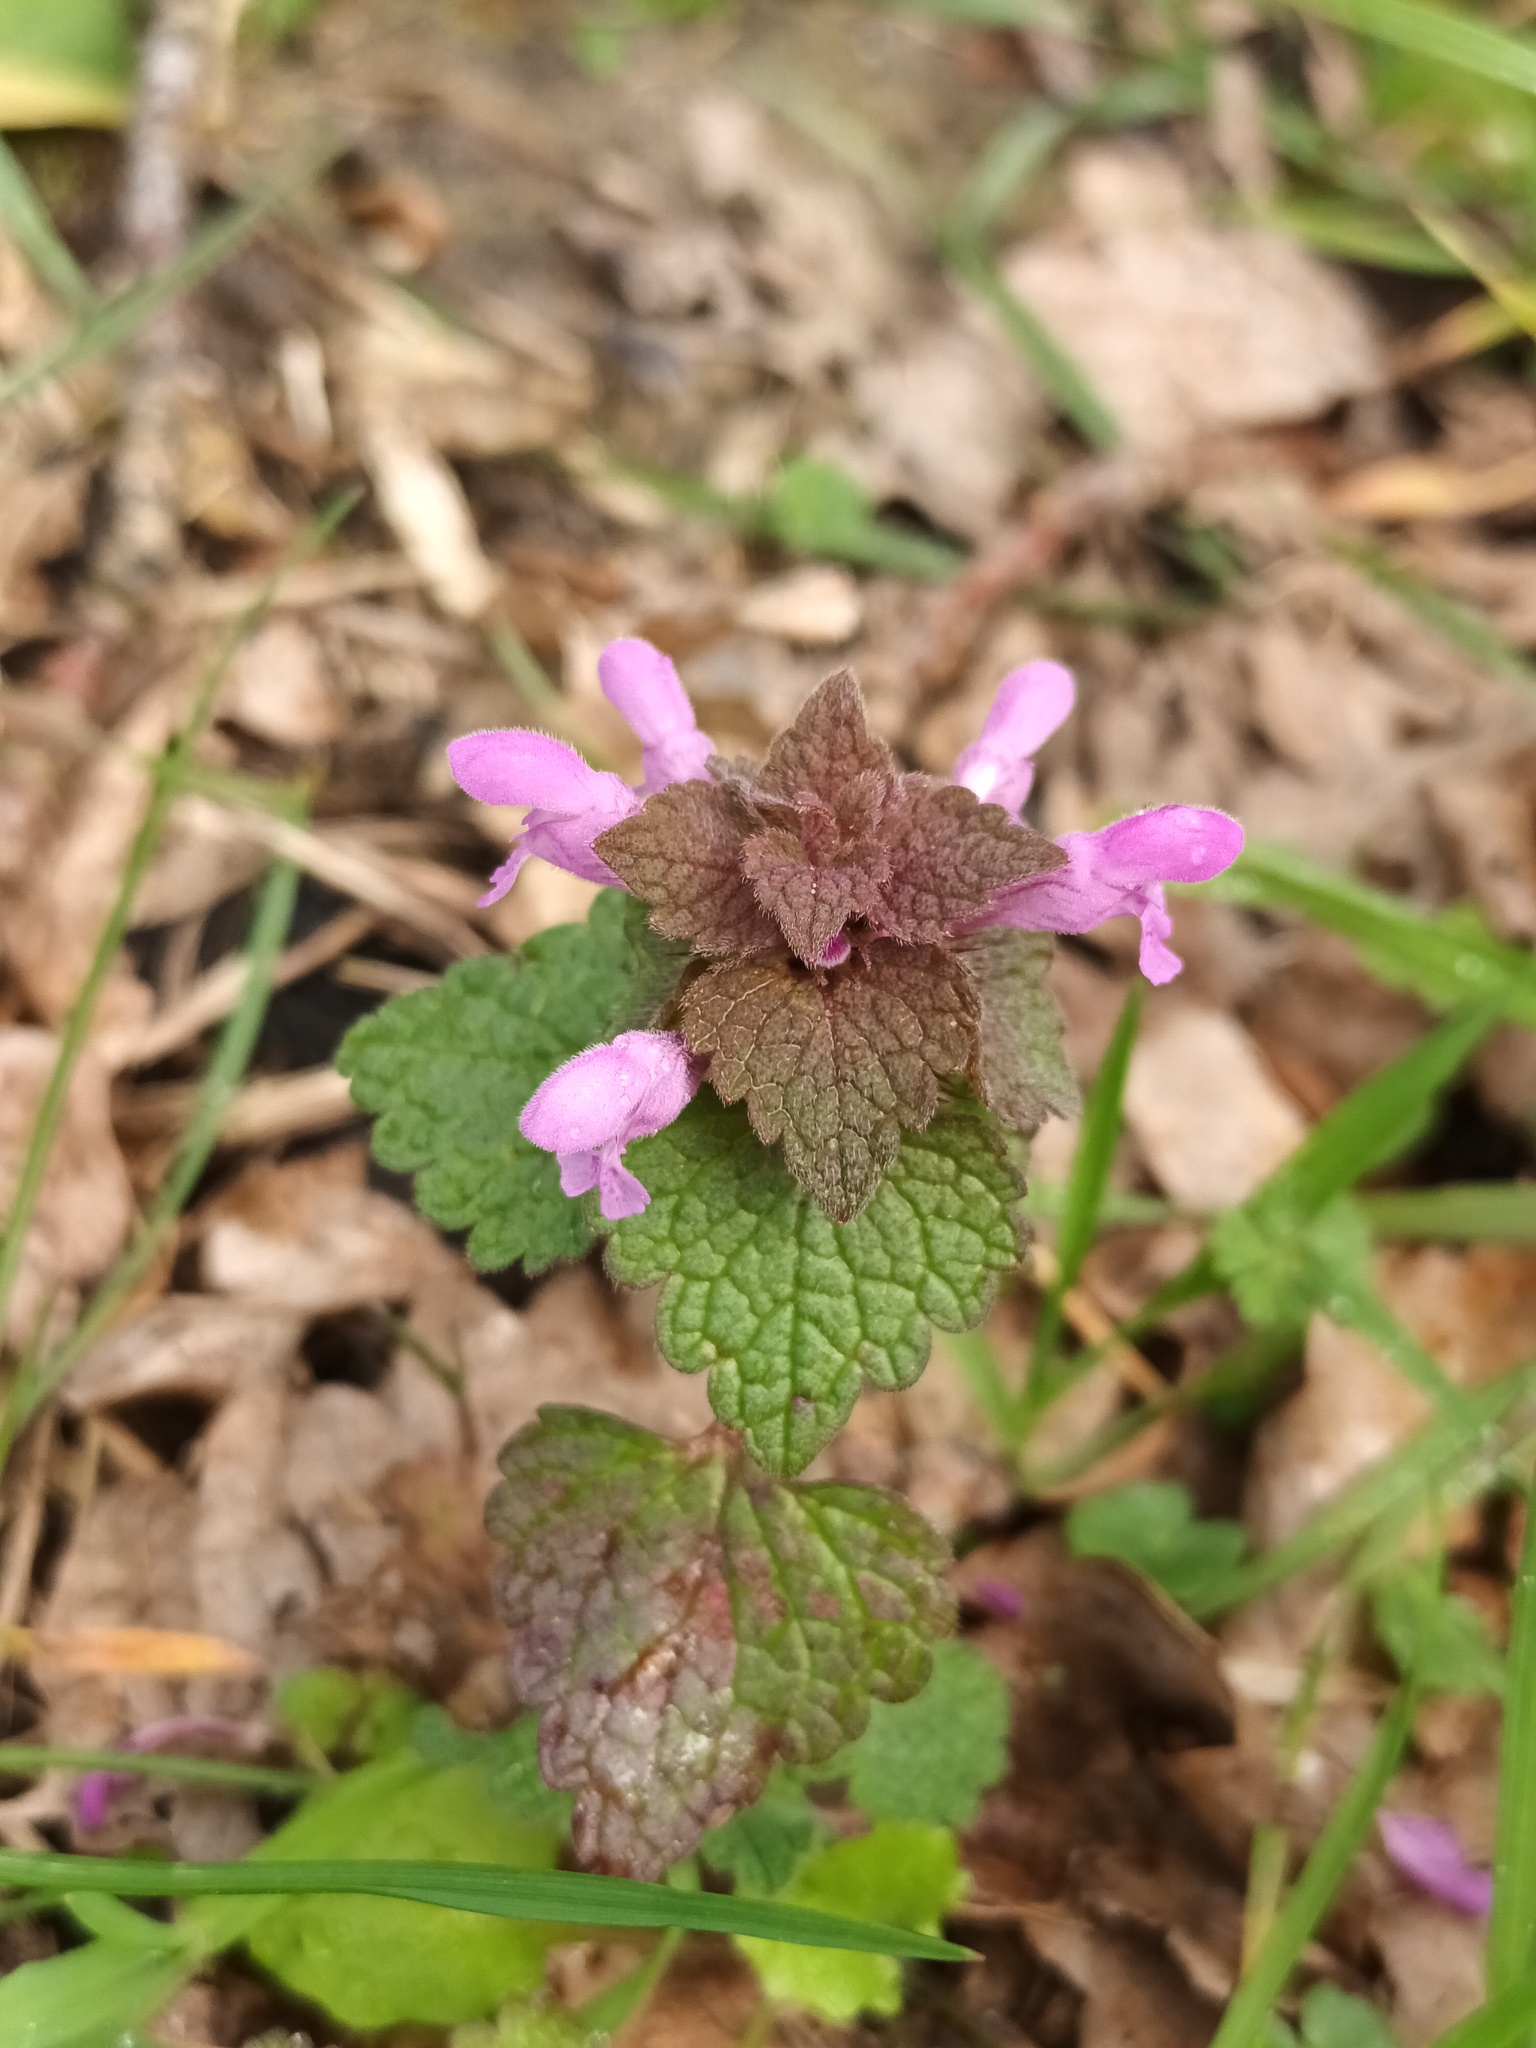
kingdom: Plantae
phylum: Tracheophyta
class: Magnoliopsida
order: Lamiales
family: Lamiaceae
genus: Lamium
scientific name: Lamium purpureum
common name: Red dead-nettle
